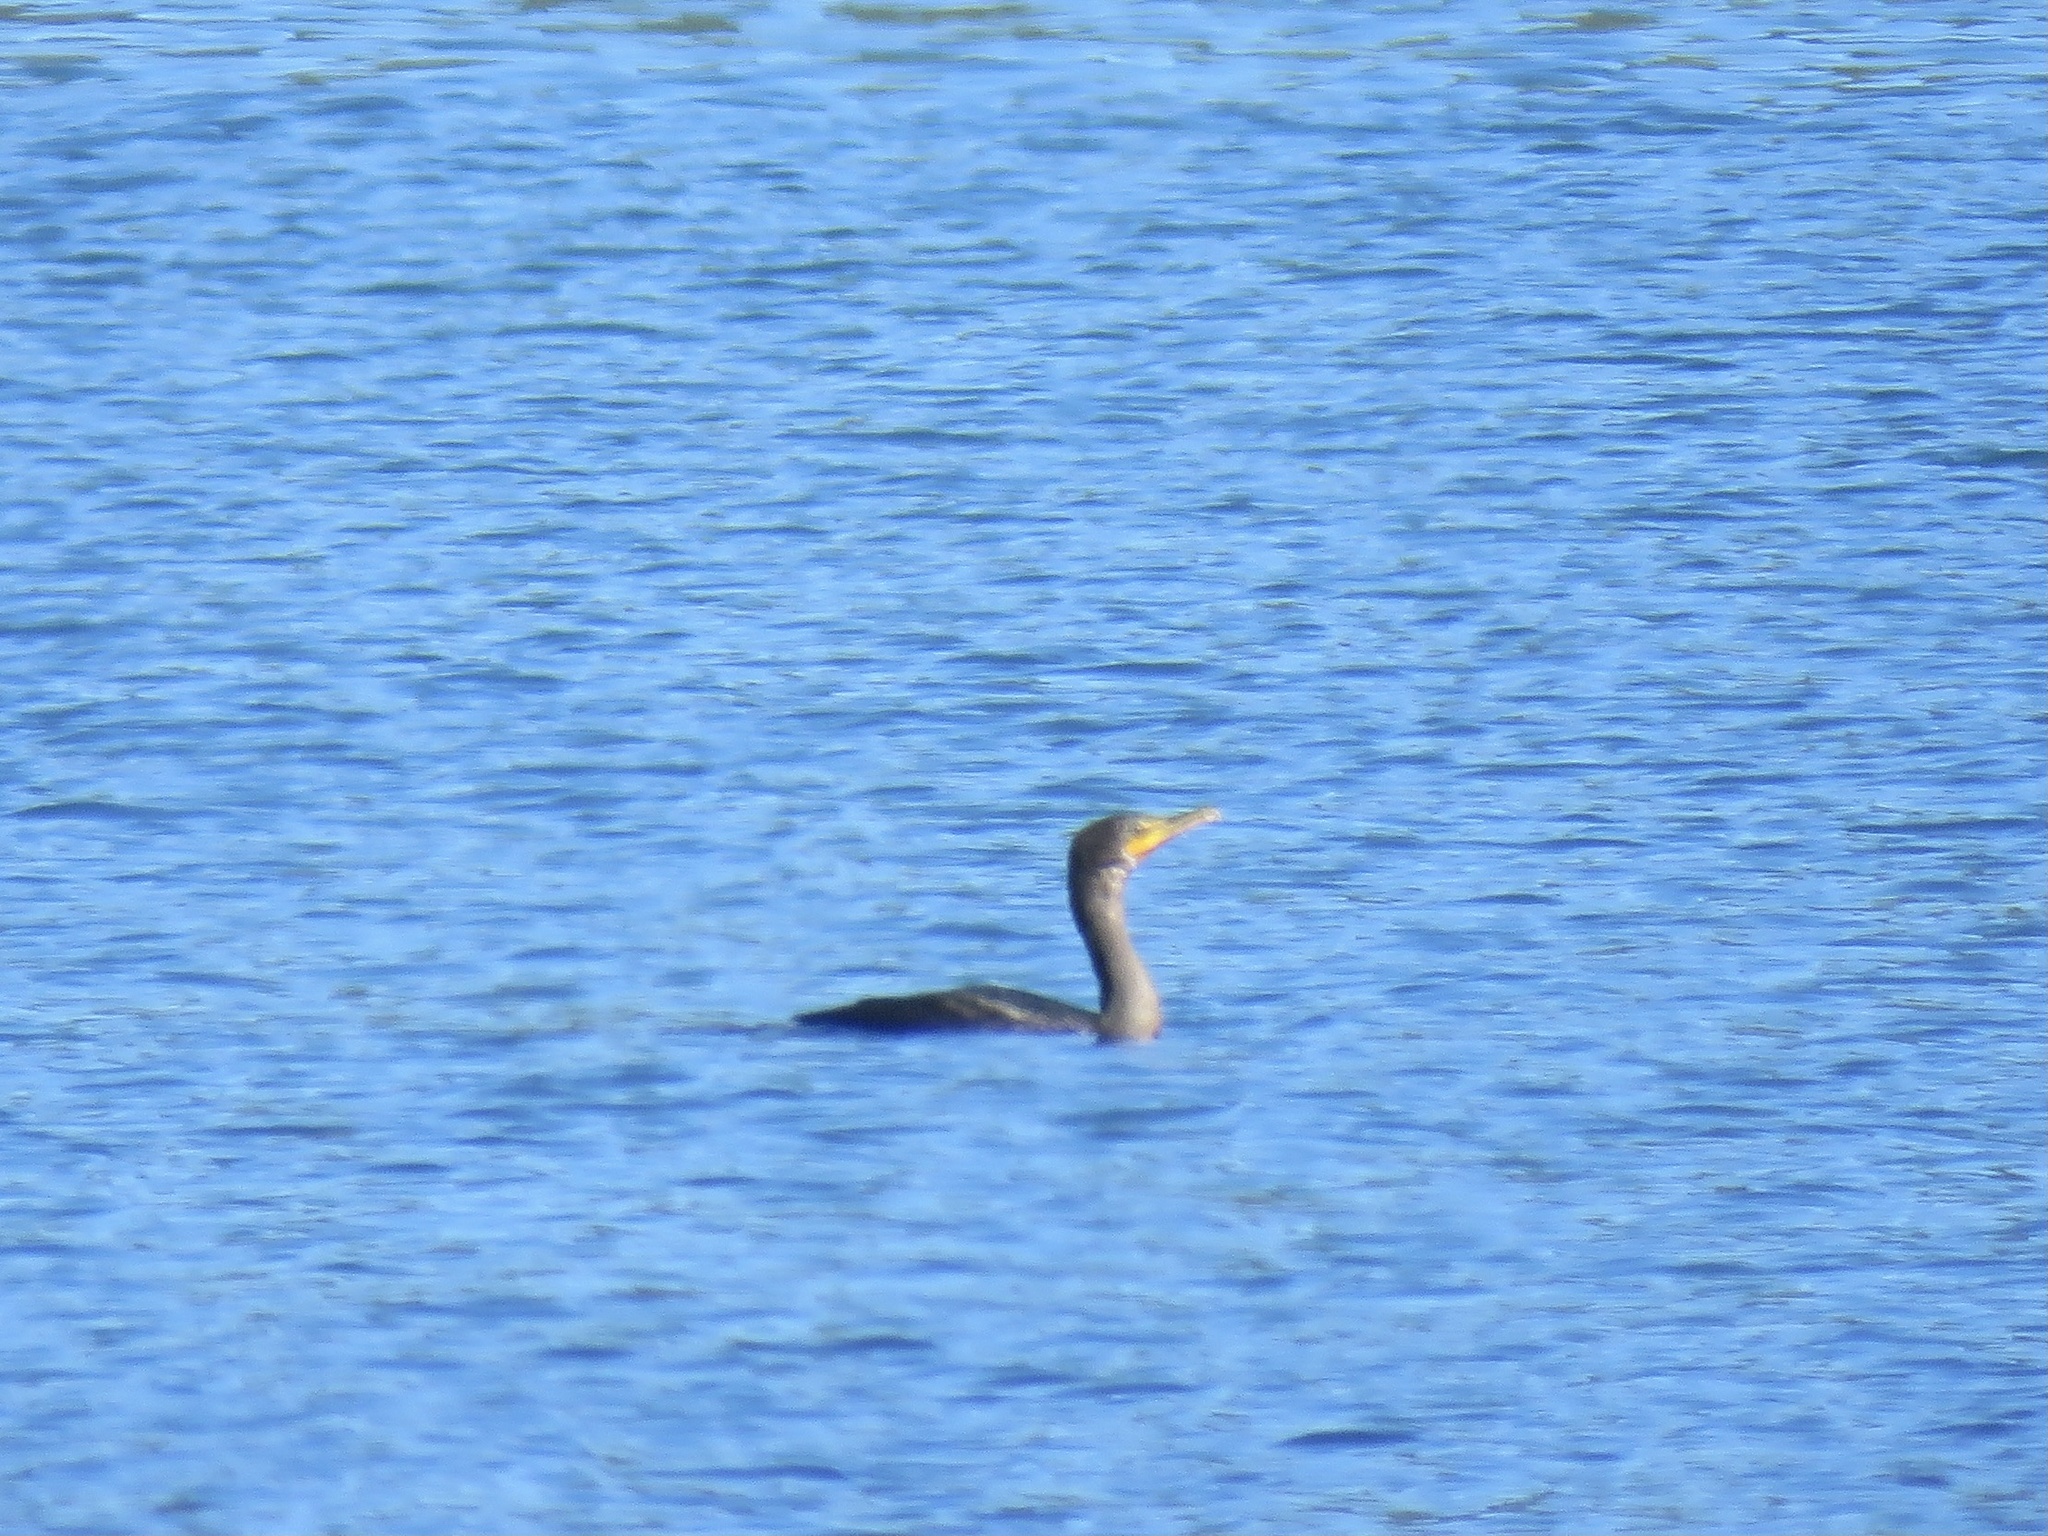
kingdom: Animalia
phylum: Chordata
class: Aves
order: Suliformes
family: Phalacrocoracidae
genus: Phalacrocorax
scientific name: Phalacrocorax auritus
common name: Double-crested cormorant
